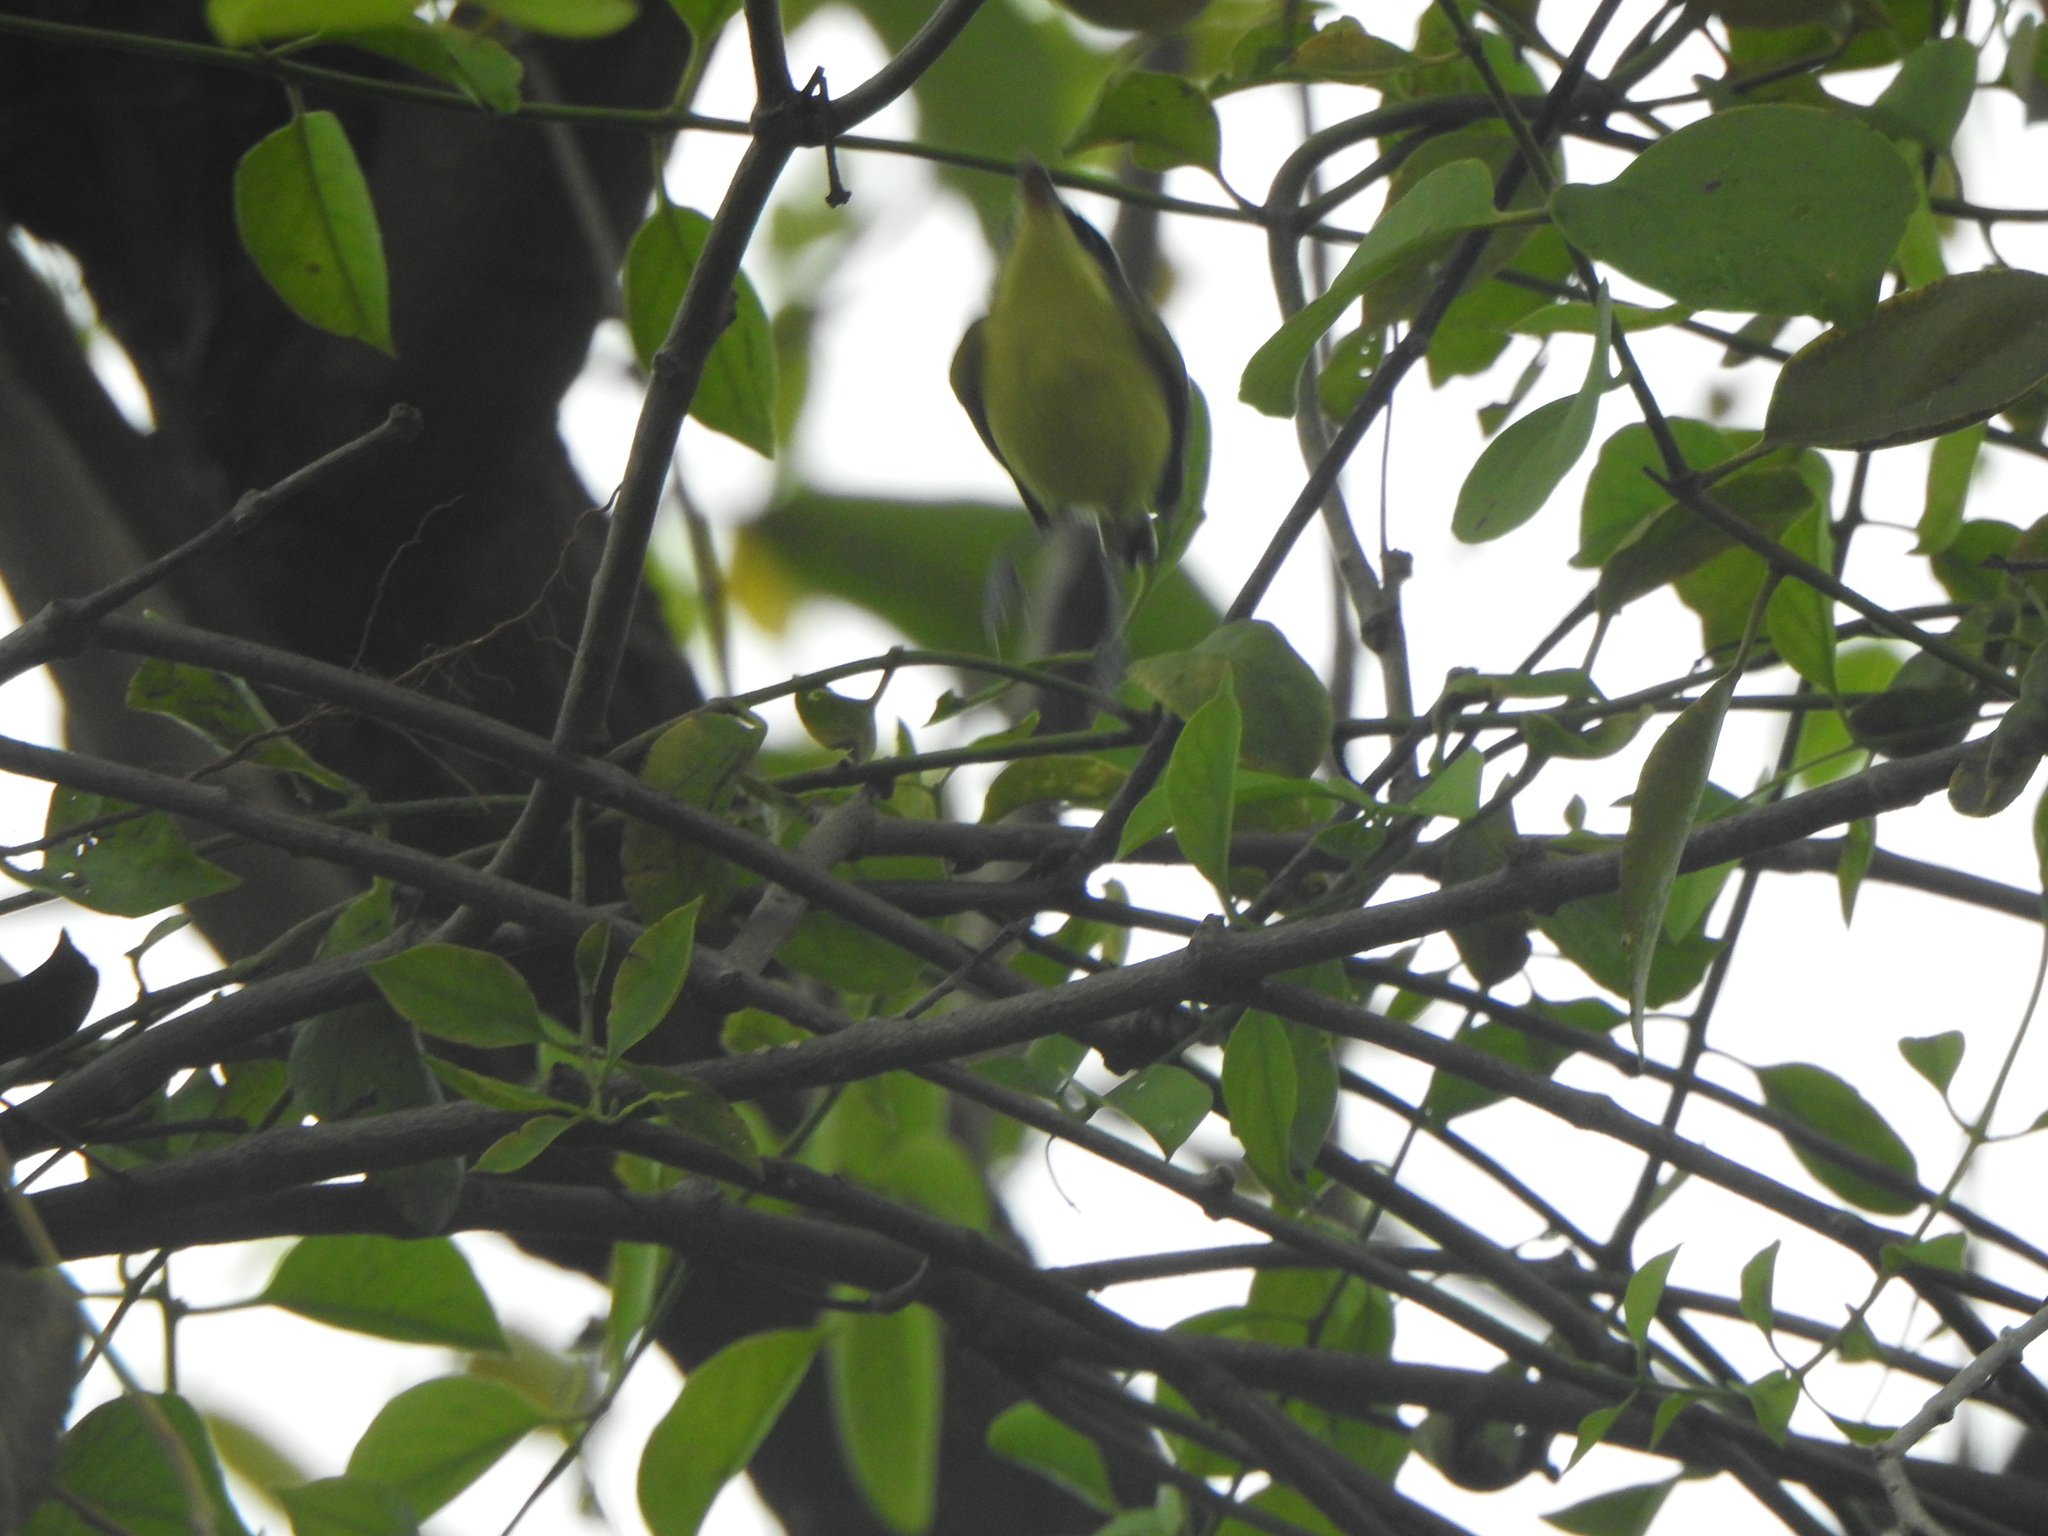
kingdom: Animalia
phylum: Chordata
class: Aves
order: Passeriformes
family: Tyrannidae
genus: Todirostrum
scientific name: Todirostrum cinereum
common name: Common tody-flycatcher
